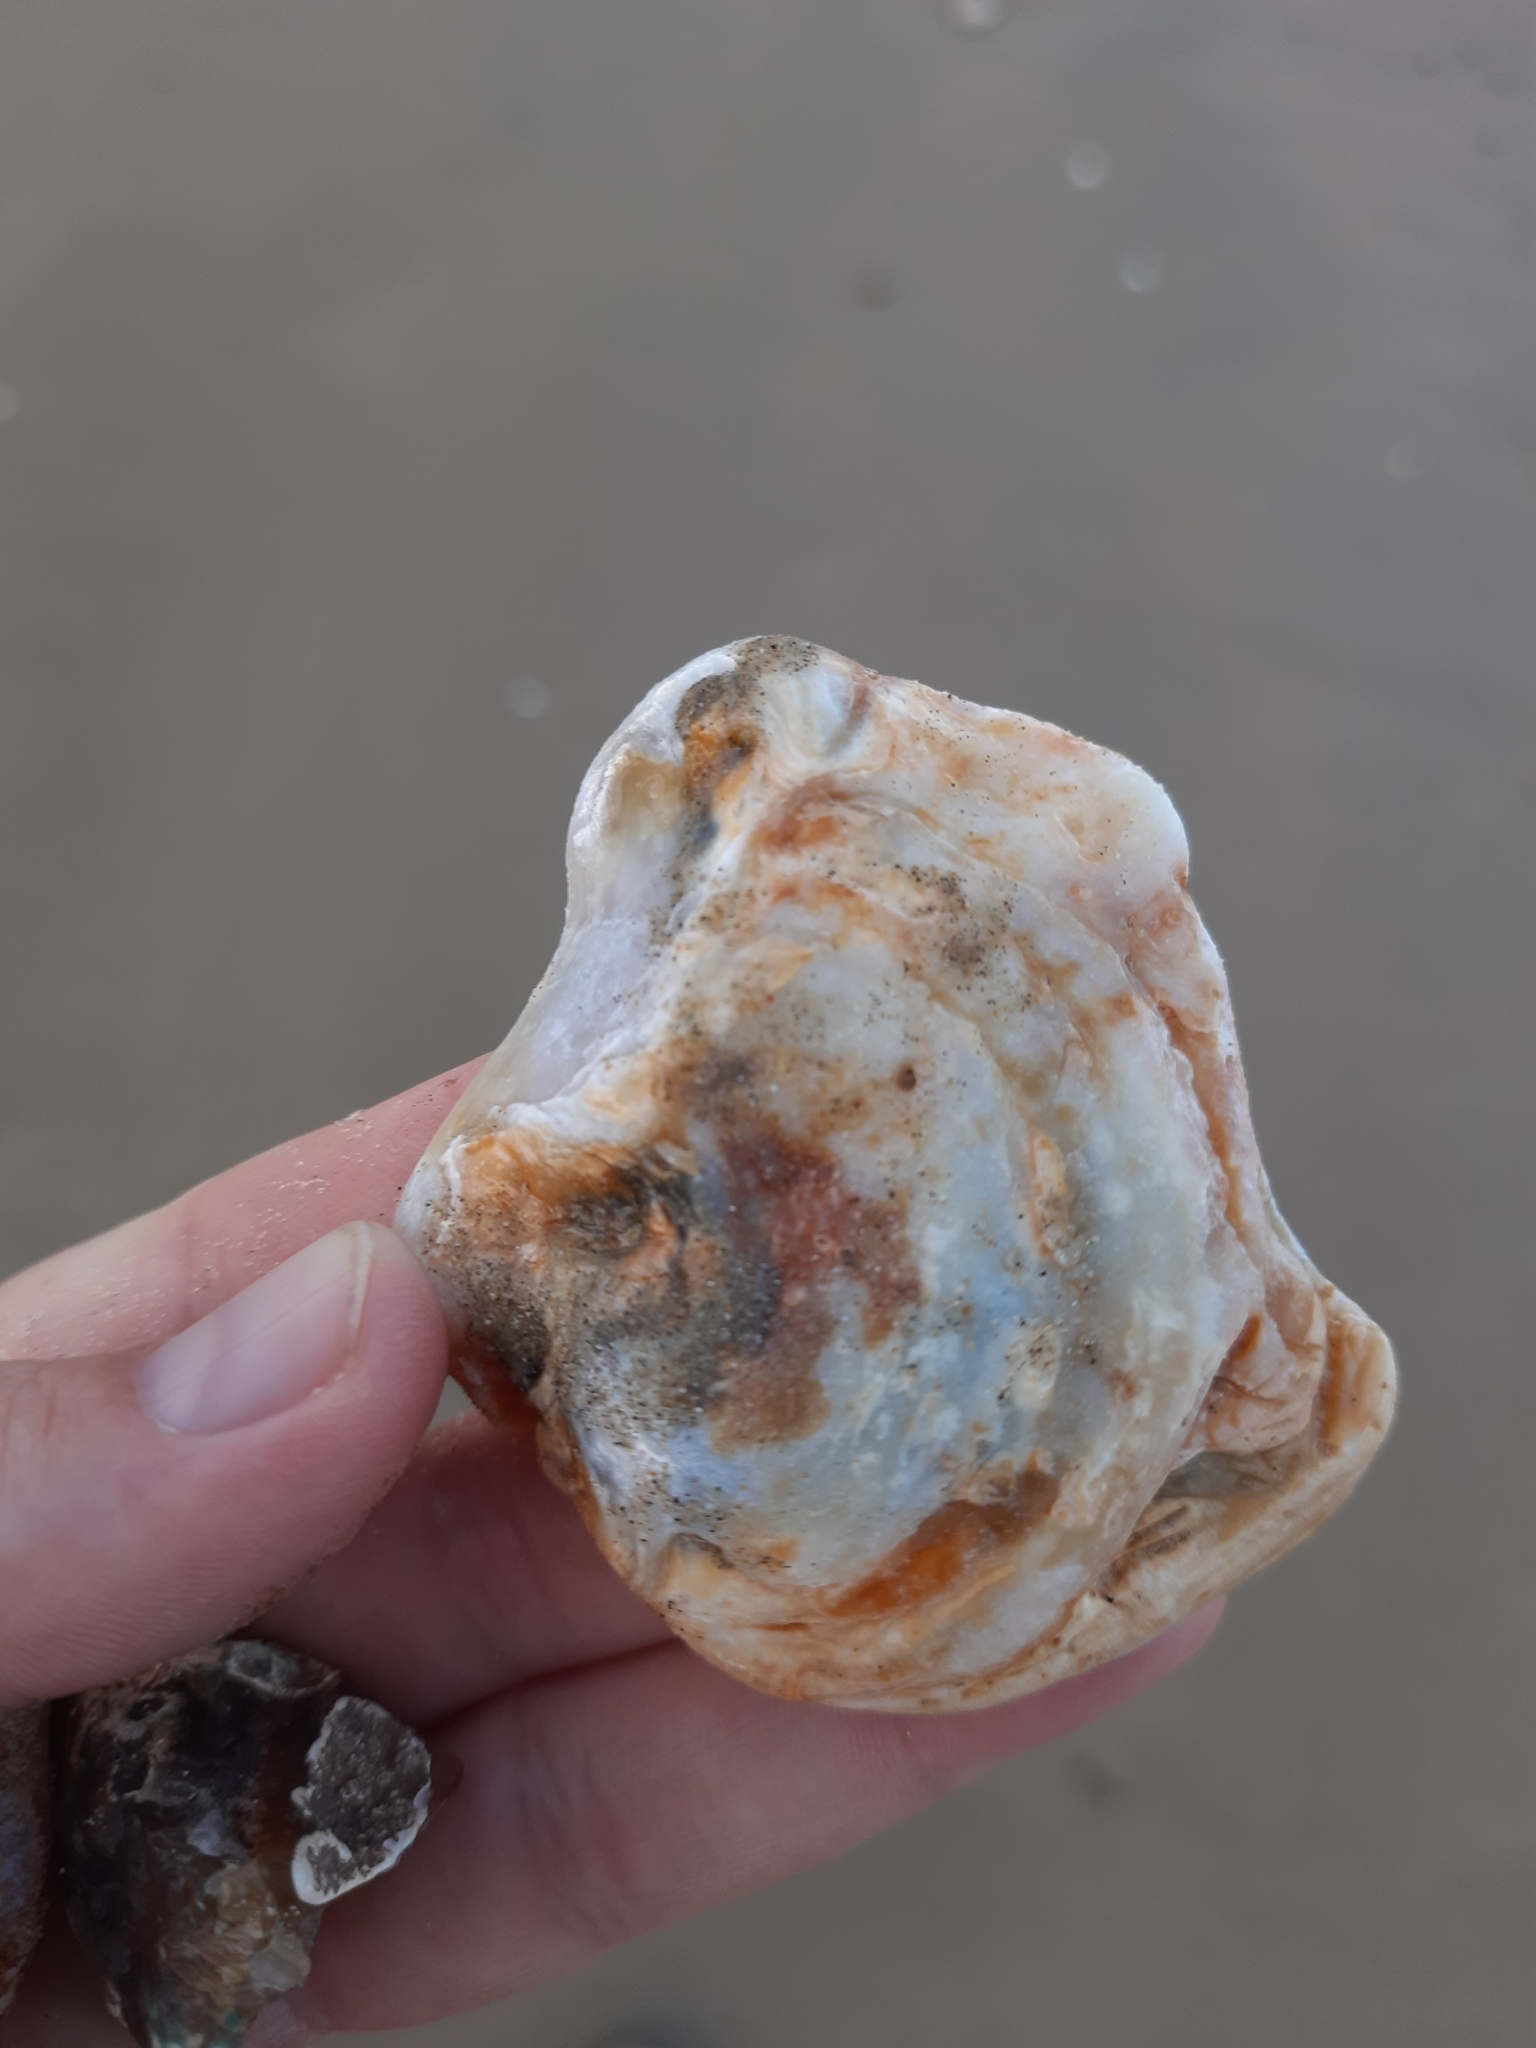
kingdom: Animalia
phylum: Mollusca
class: Bivalvia
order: Ostreida
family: Ostreidae
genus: Ostrea
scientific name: Ostrea chilensis
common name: Chilean oyster
